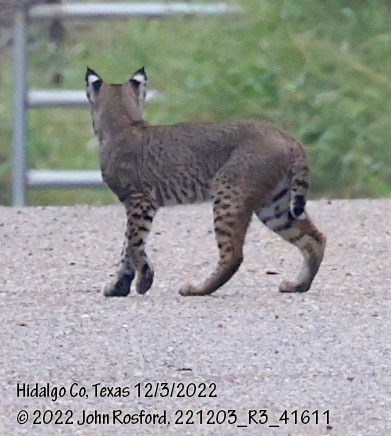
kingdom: Animalia
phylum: Chordata
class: Mammalia
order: Carnivora
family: Felidae
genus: Lynx
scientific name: Lynx rufus
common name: Bobcat
